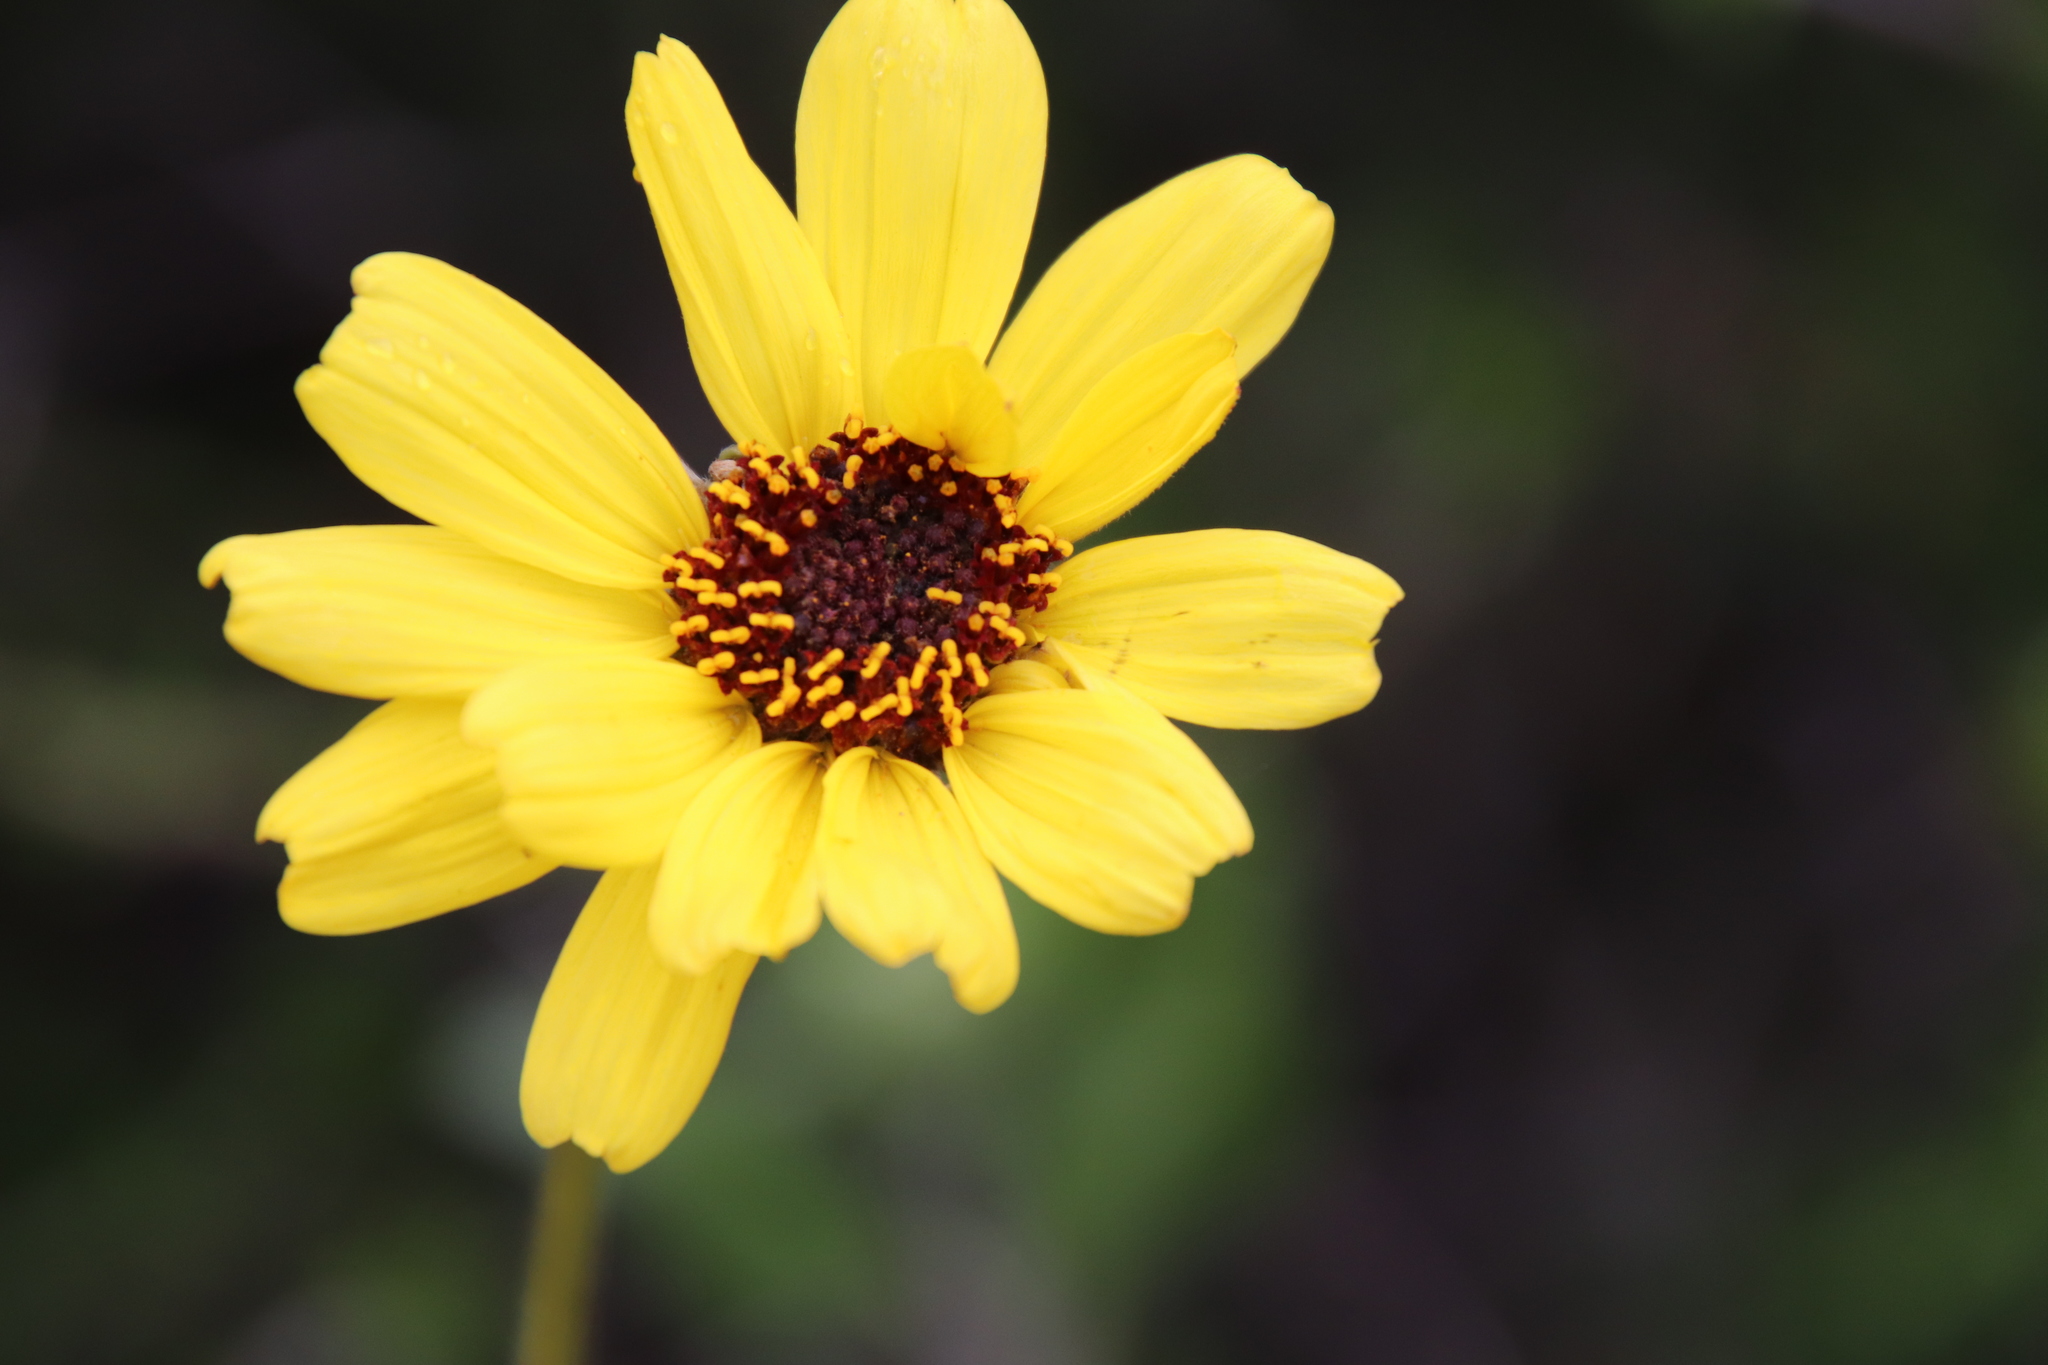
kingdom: Plantae
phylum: Tracheophyta
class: Magnoliopsida
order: Asterales
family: Asteraceae
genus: Encelia
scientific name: Encelia californica
